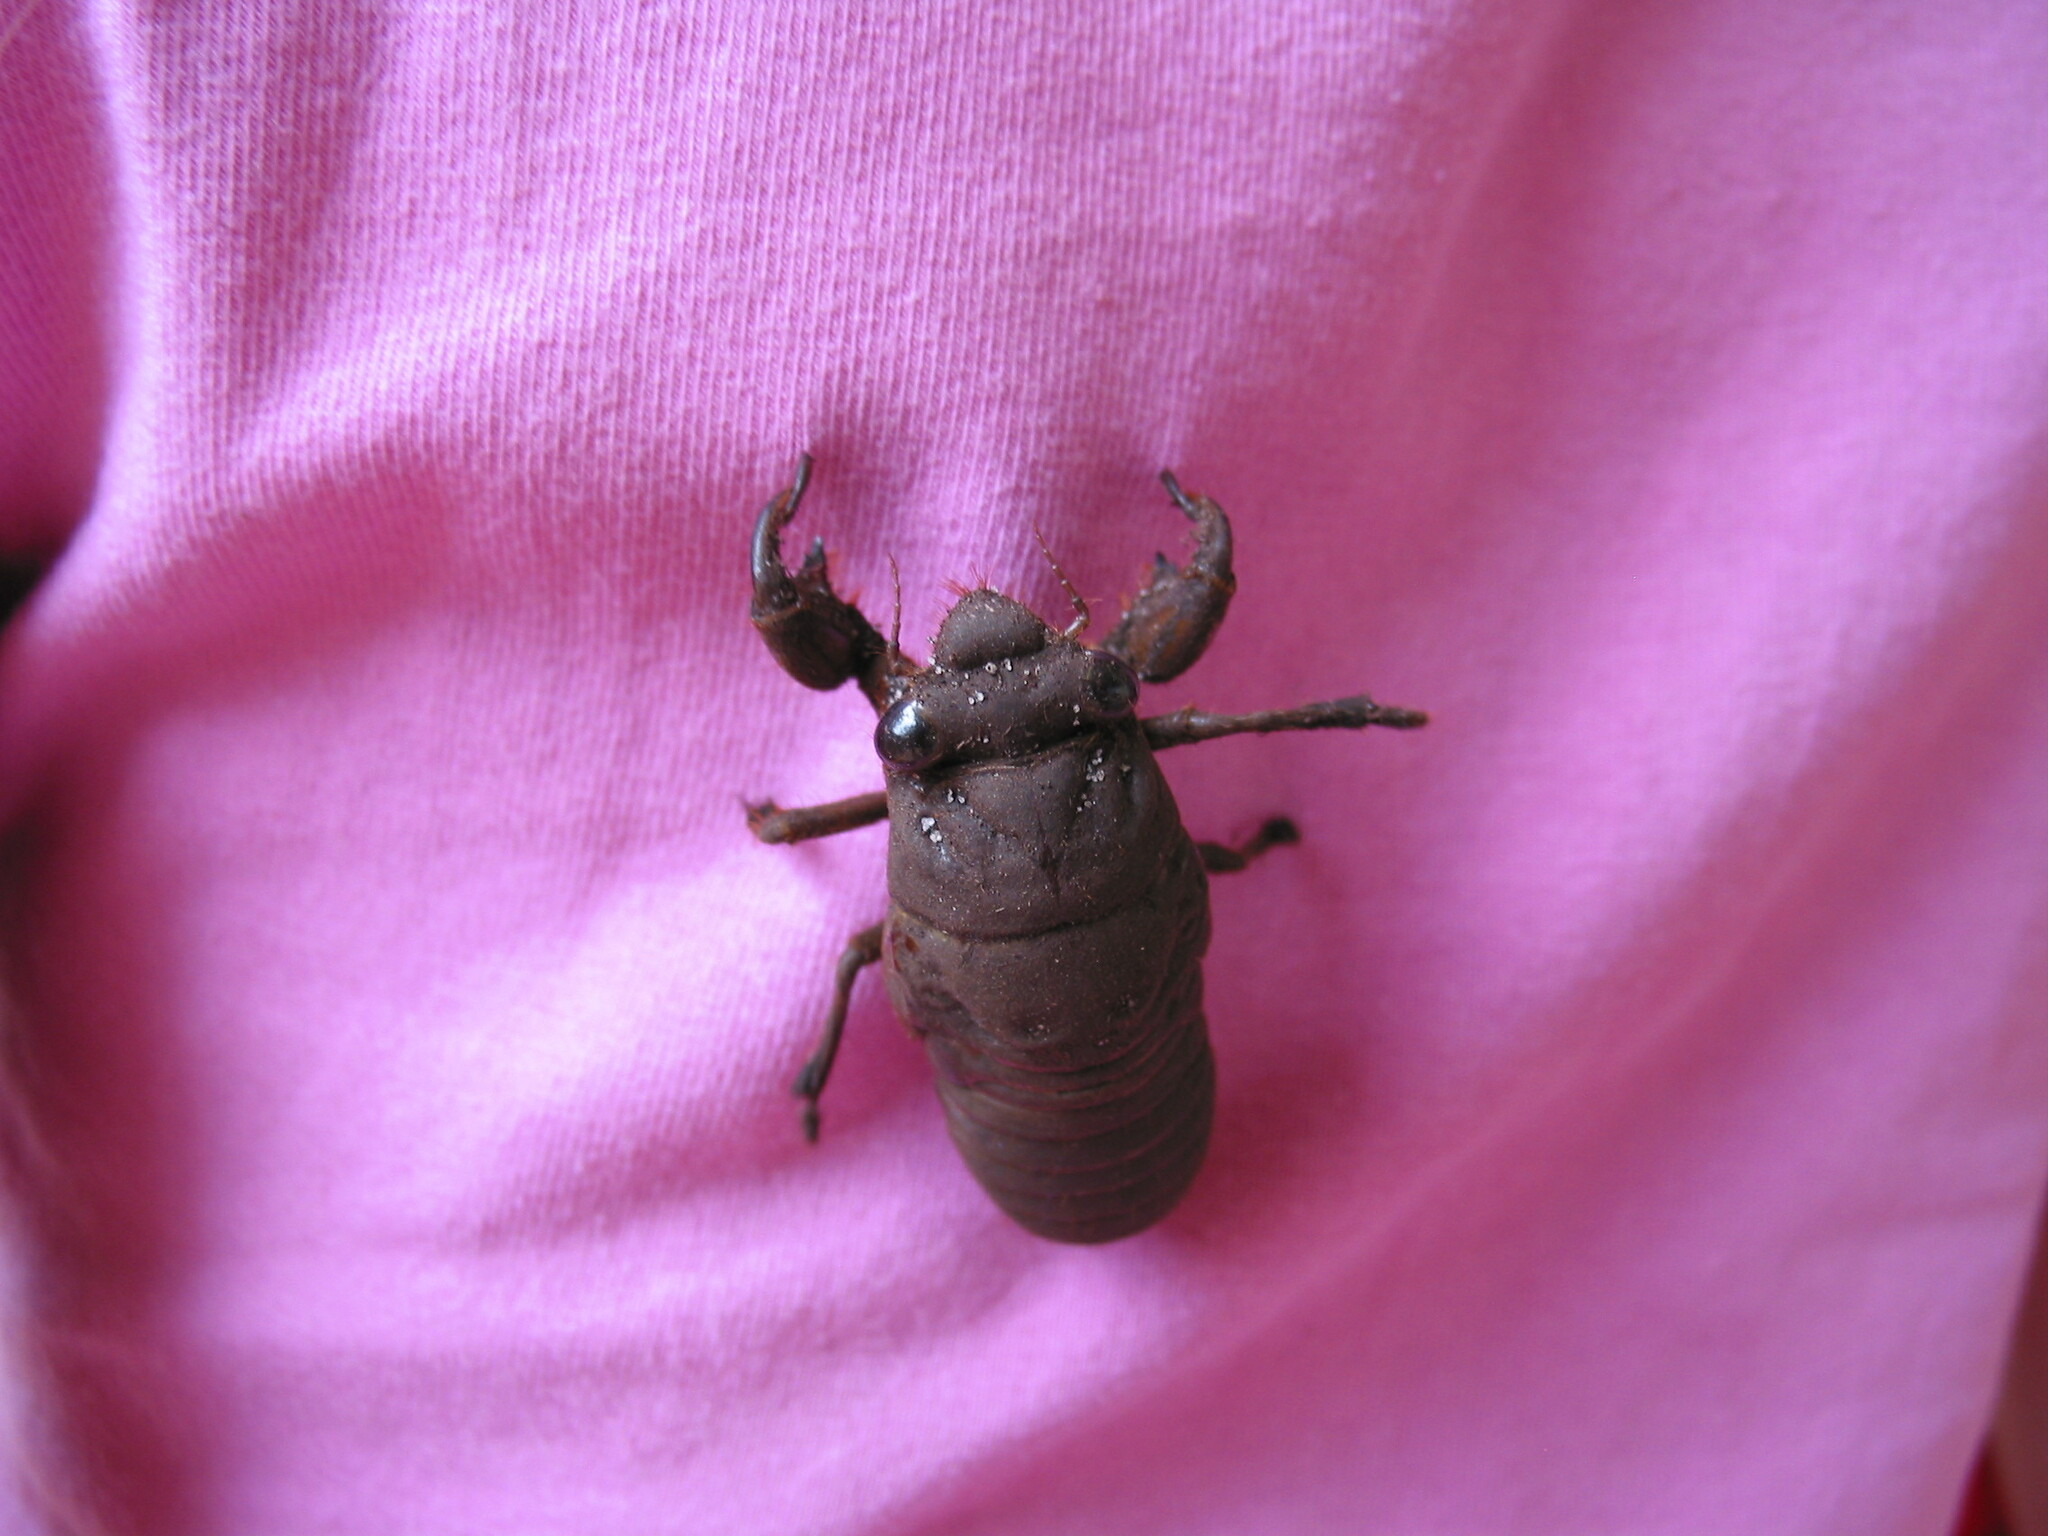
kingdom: Animalia
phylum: Arthropoda
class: Insecta
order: Hemiptera
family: Cicadidae
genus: Thopha
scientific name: Thopha saccata
